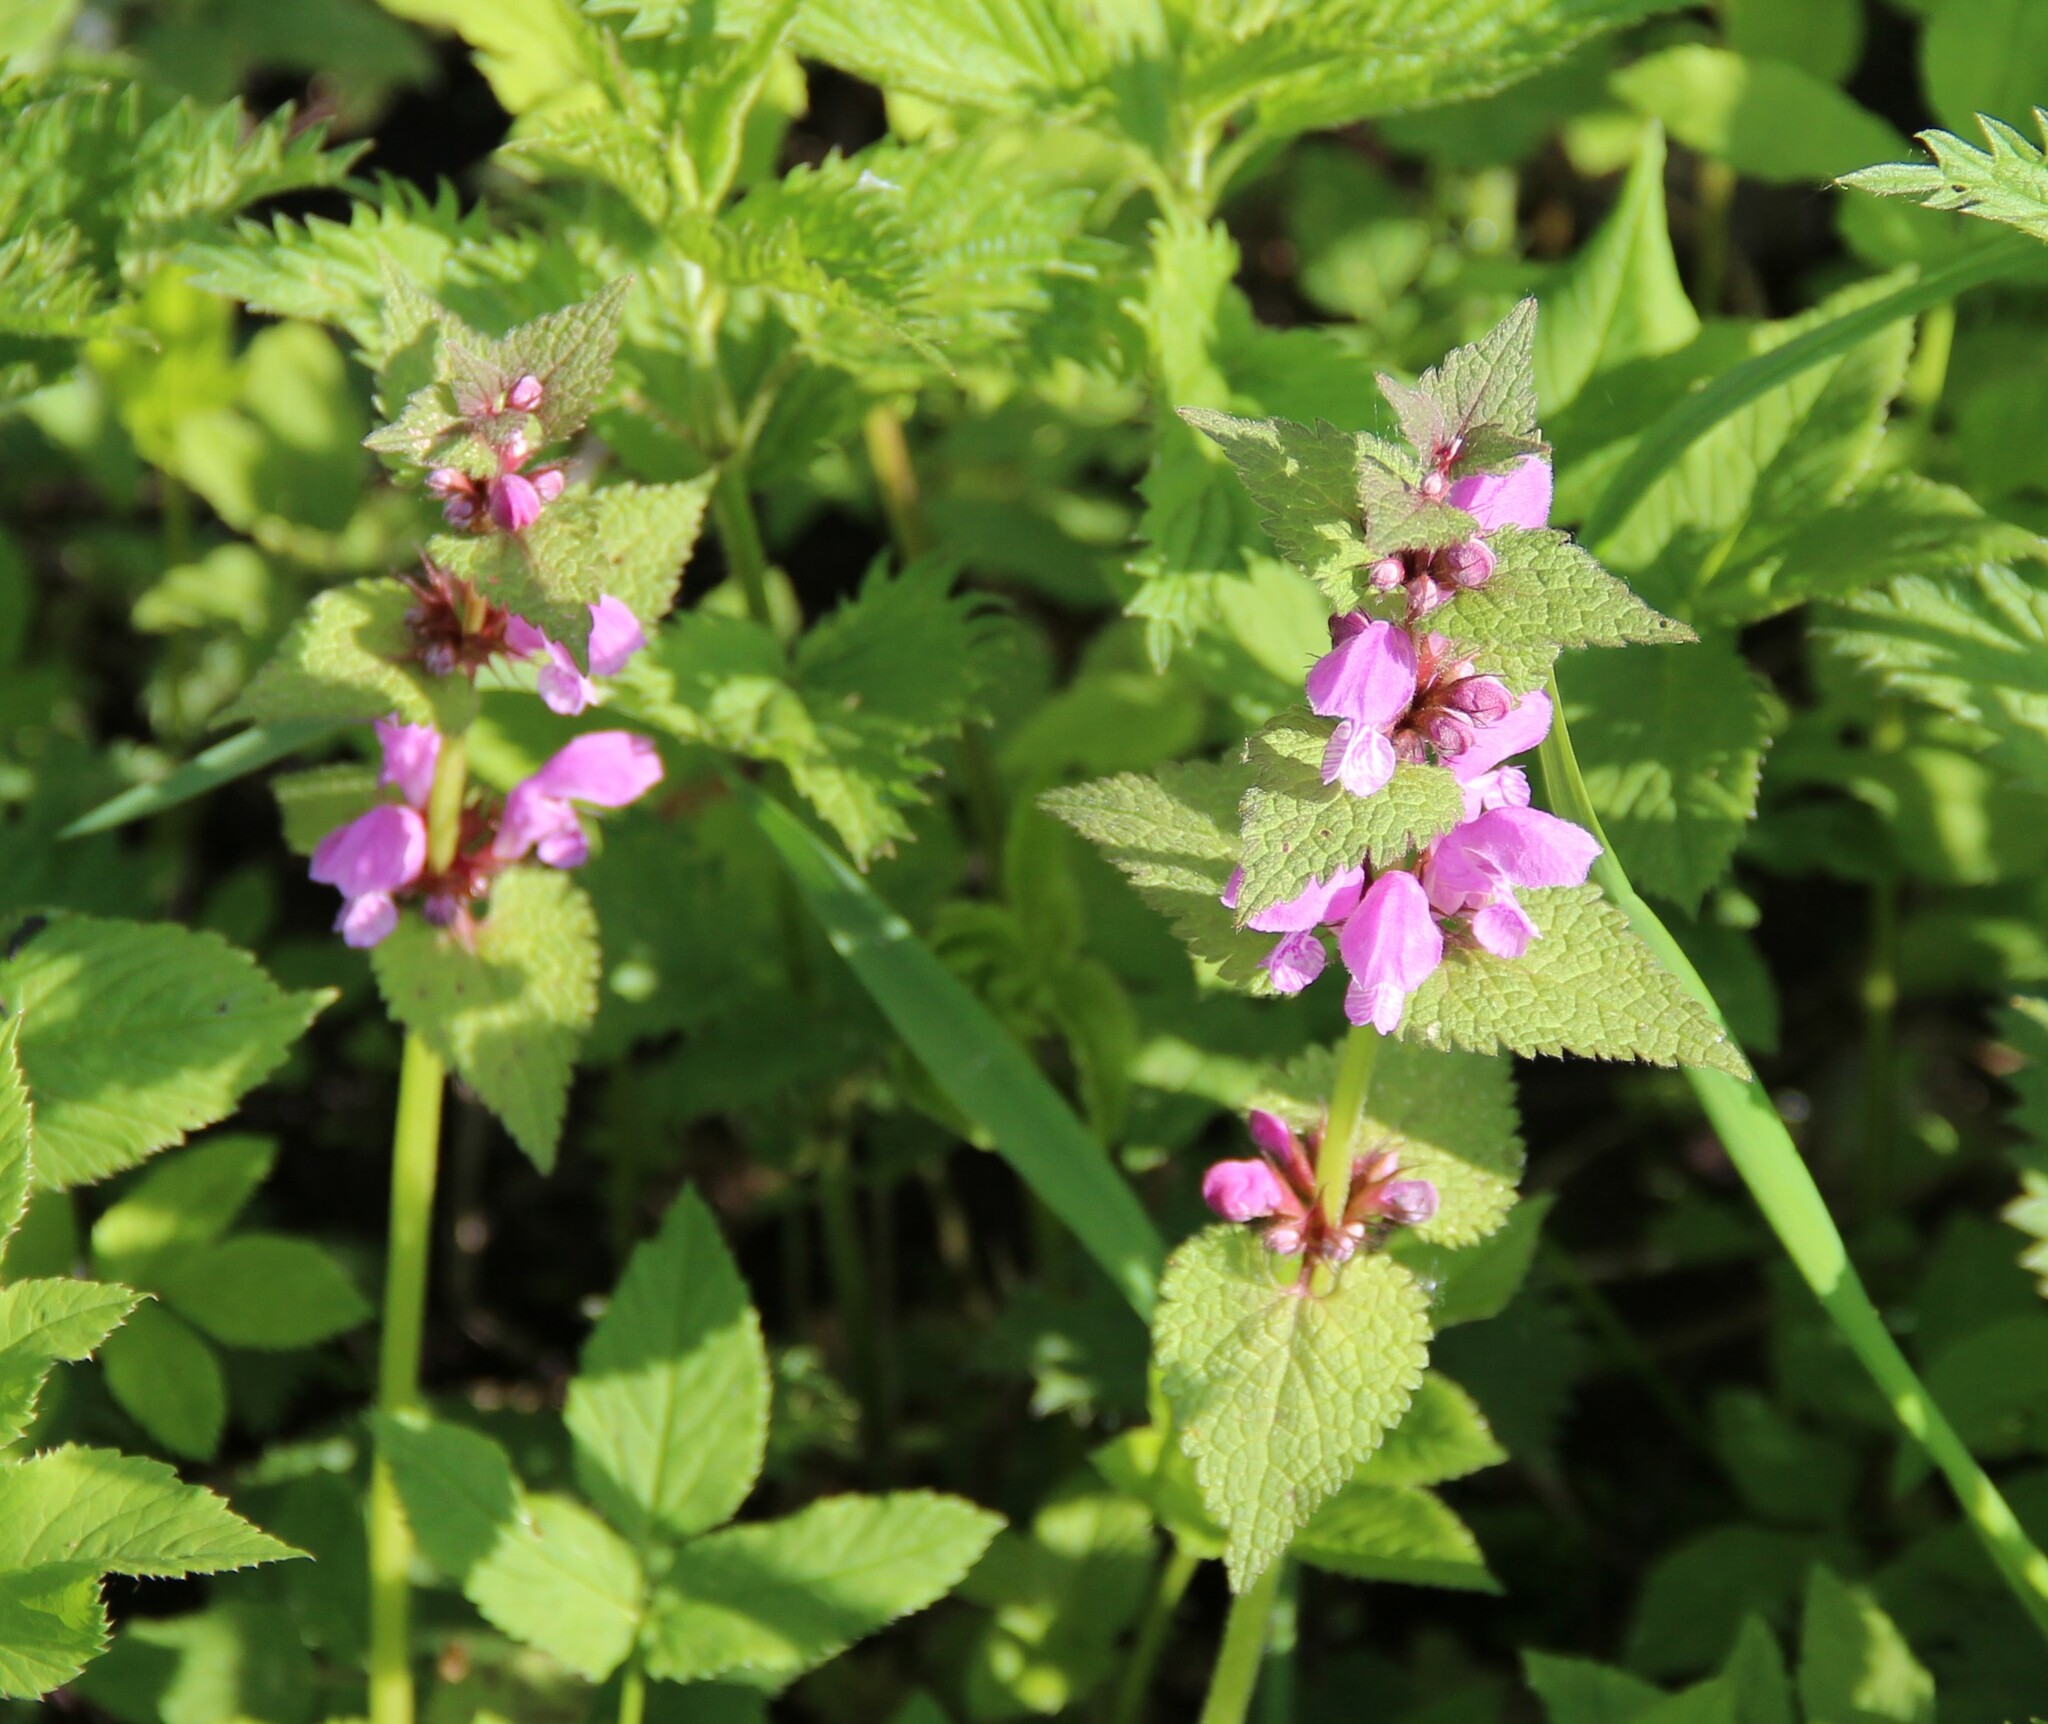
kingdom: Plantae
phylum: Tracheophyta
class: Magnoliopsida
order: Lamiales
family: Lamiaceae
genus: Lamium
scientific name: Lamium maculatum
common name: Spotted dead-nettle
